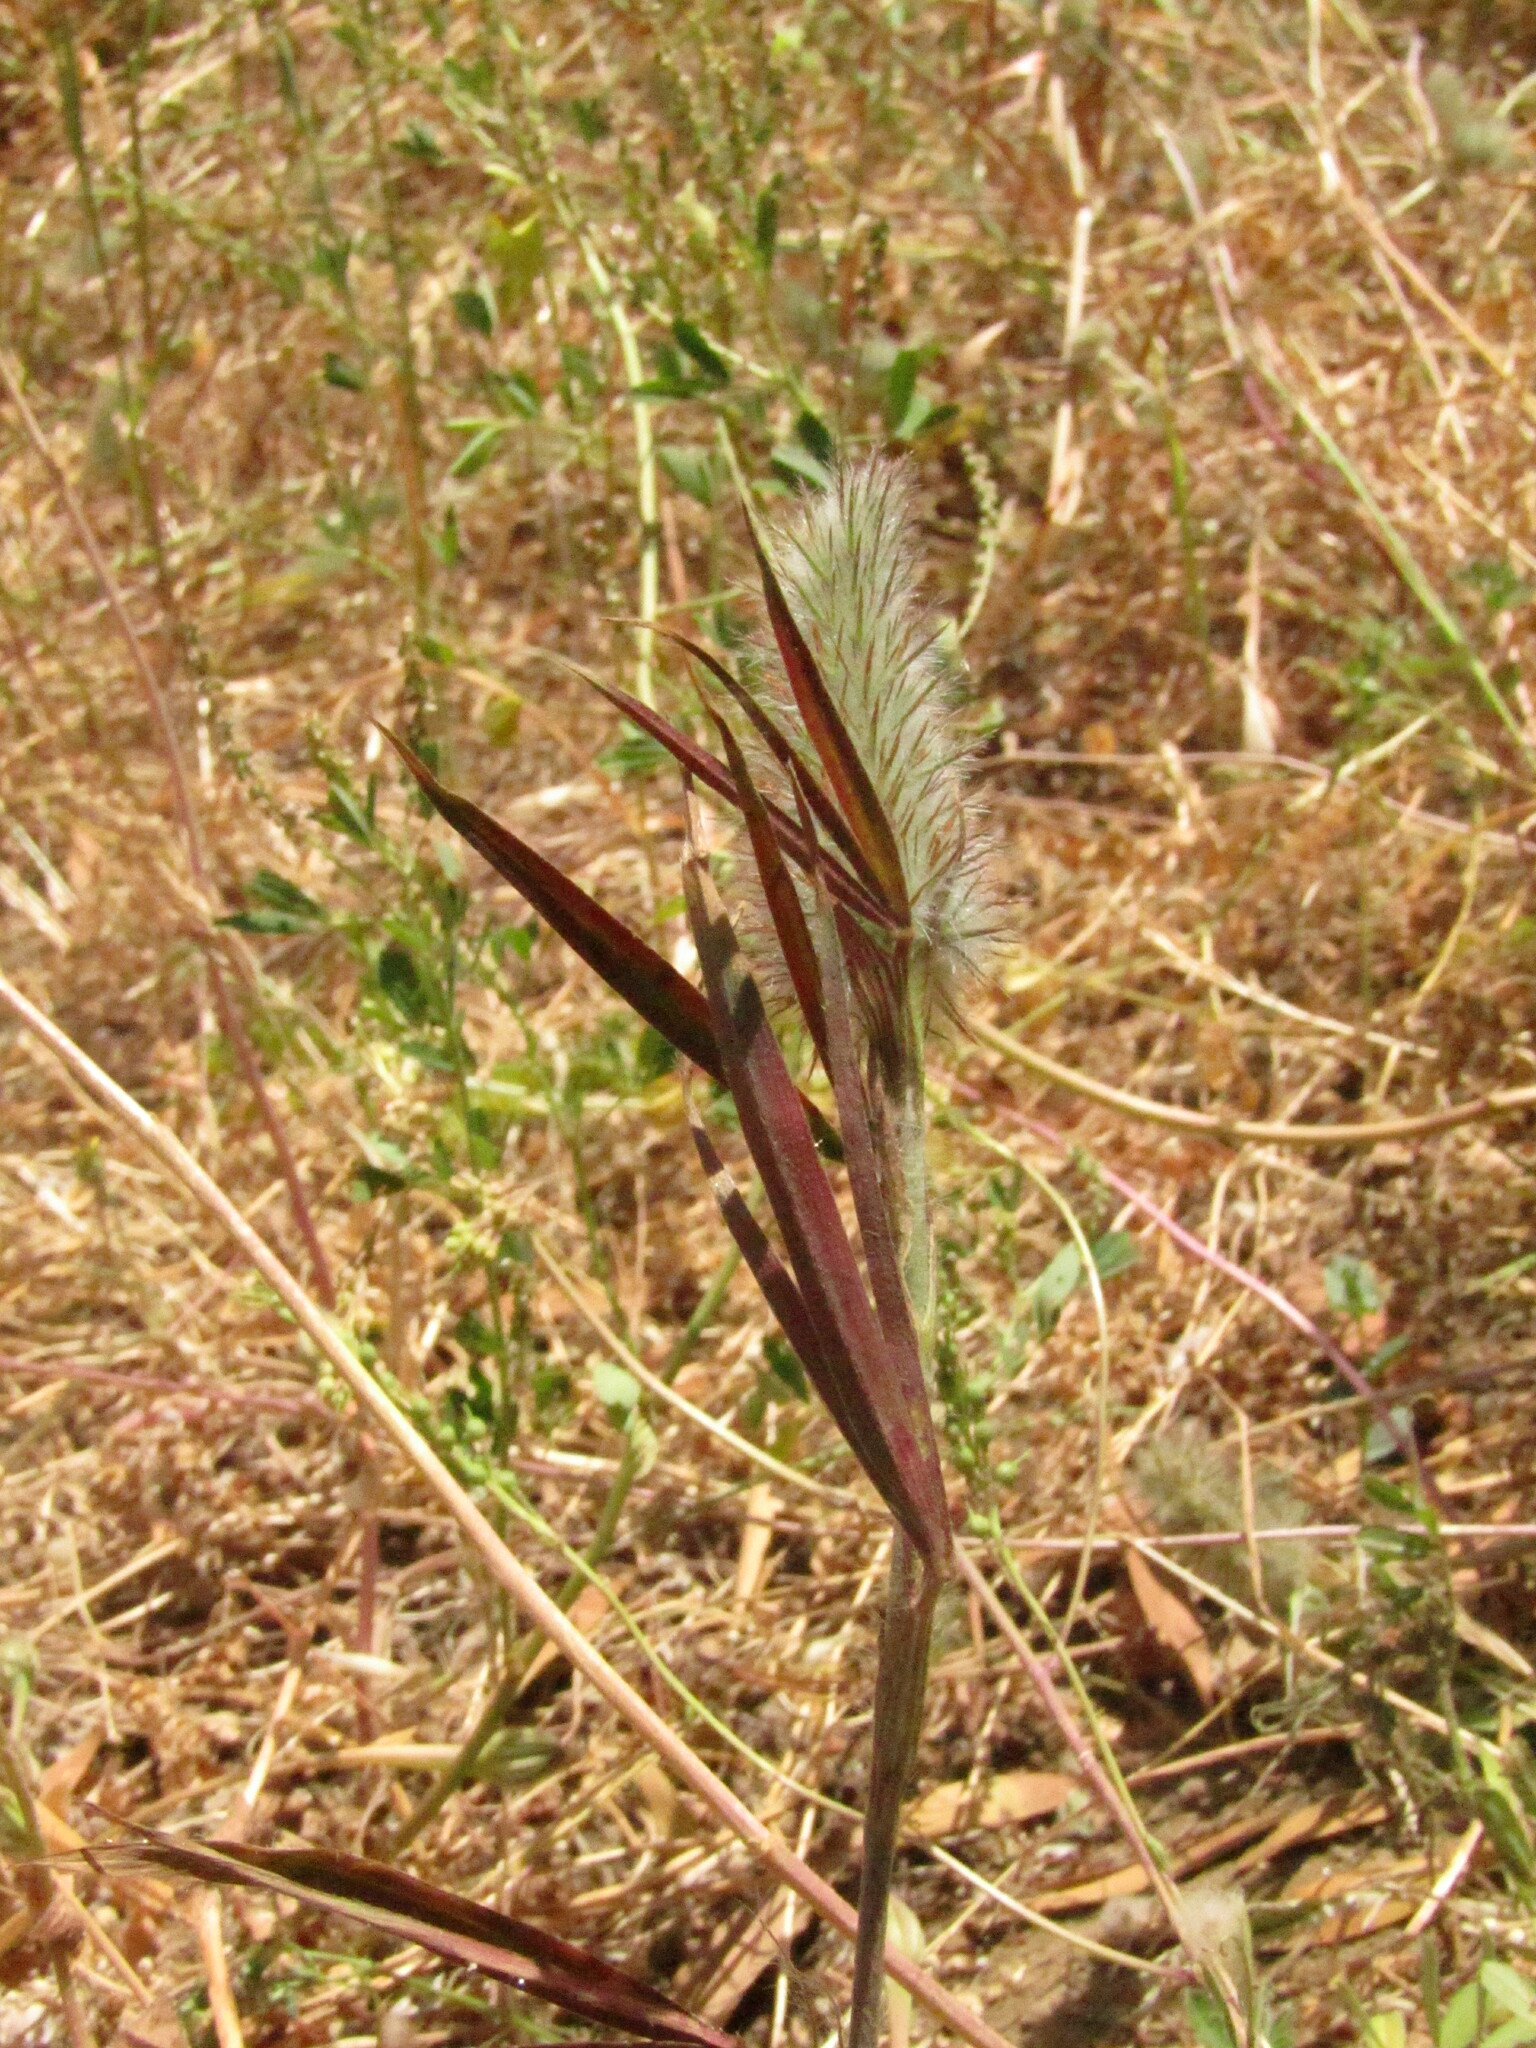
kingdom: Plantae
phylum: Tracheophyta
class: Magnoliopsida
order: Fabales
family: Fabaceae
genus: Trifolium
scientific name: Trifolium angustifolium
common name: Narrow clover
